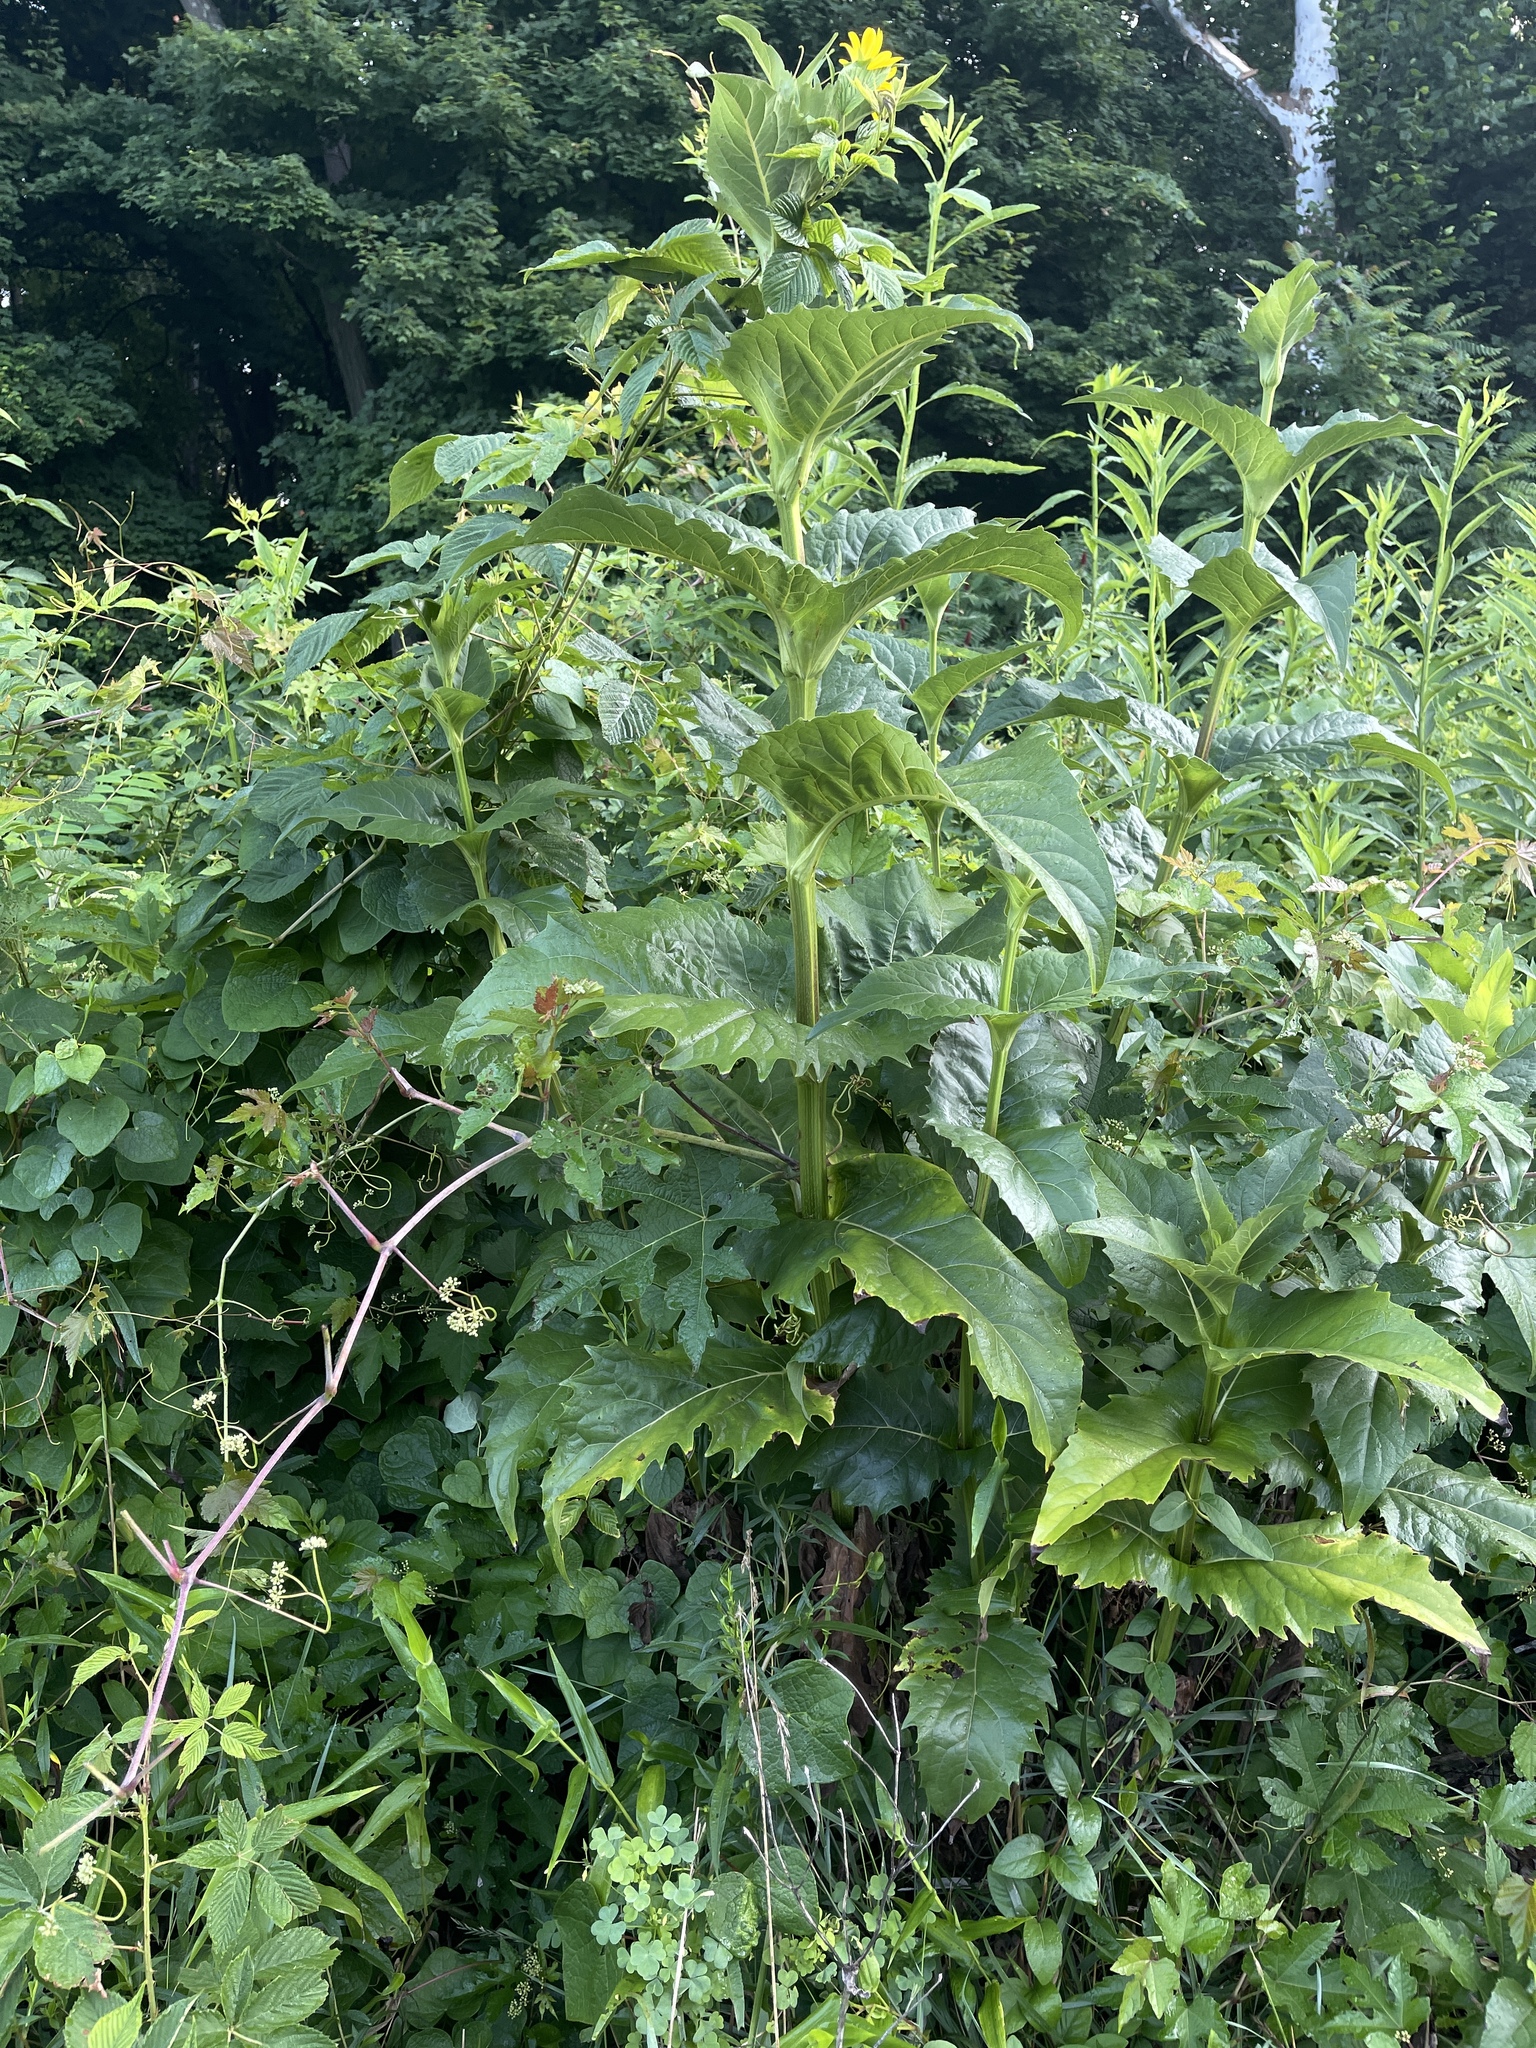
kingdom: Plantae
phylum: Tracheophyta
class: Magnoliopsida
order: Asterales
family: Asteraceae
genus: Silphium
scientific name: Silphium perfoliatum
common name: Cup-plant
